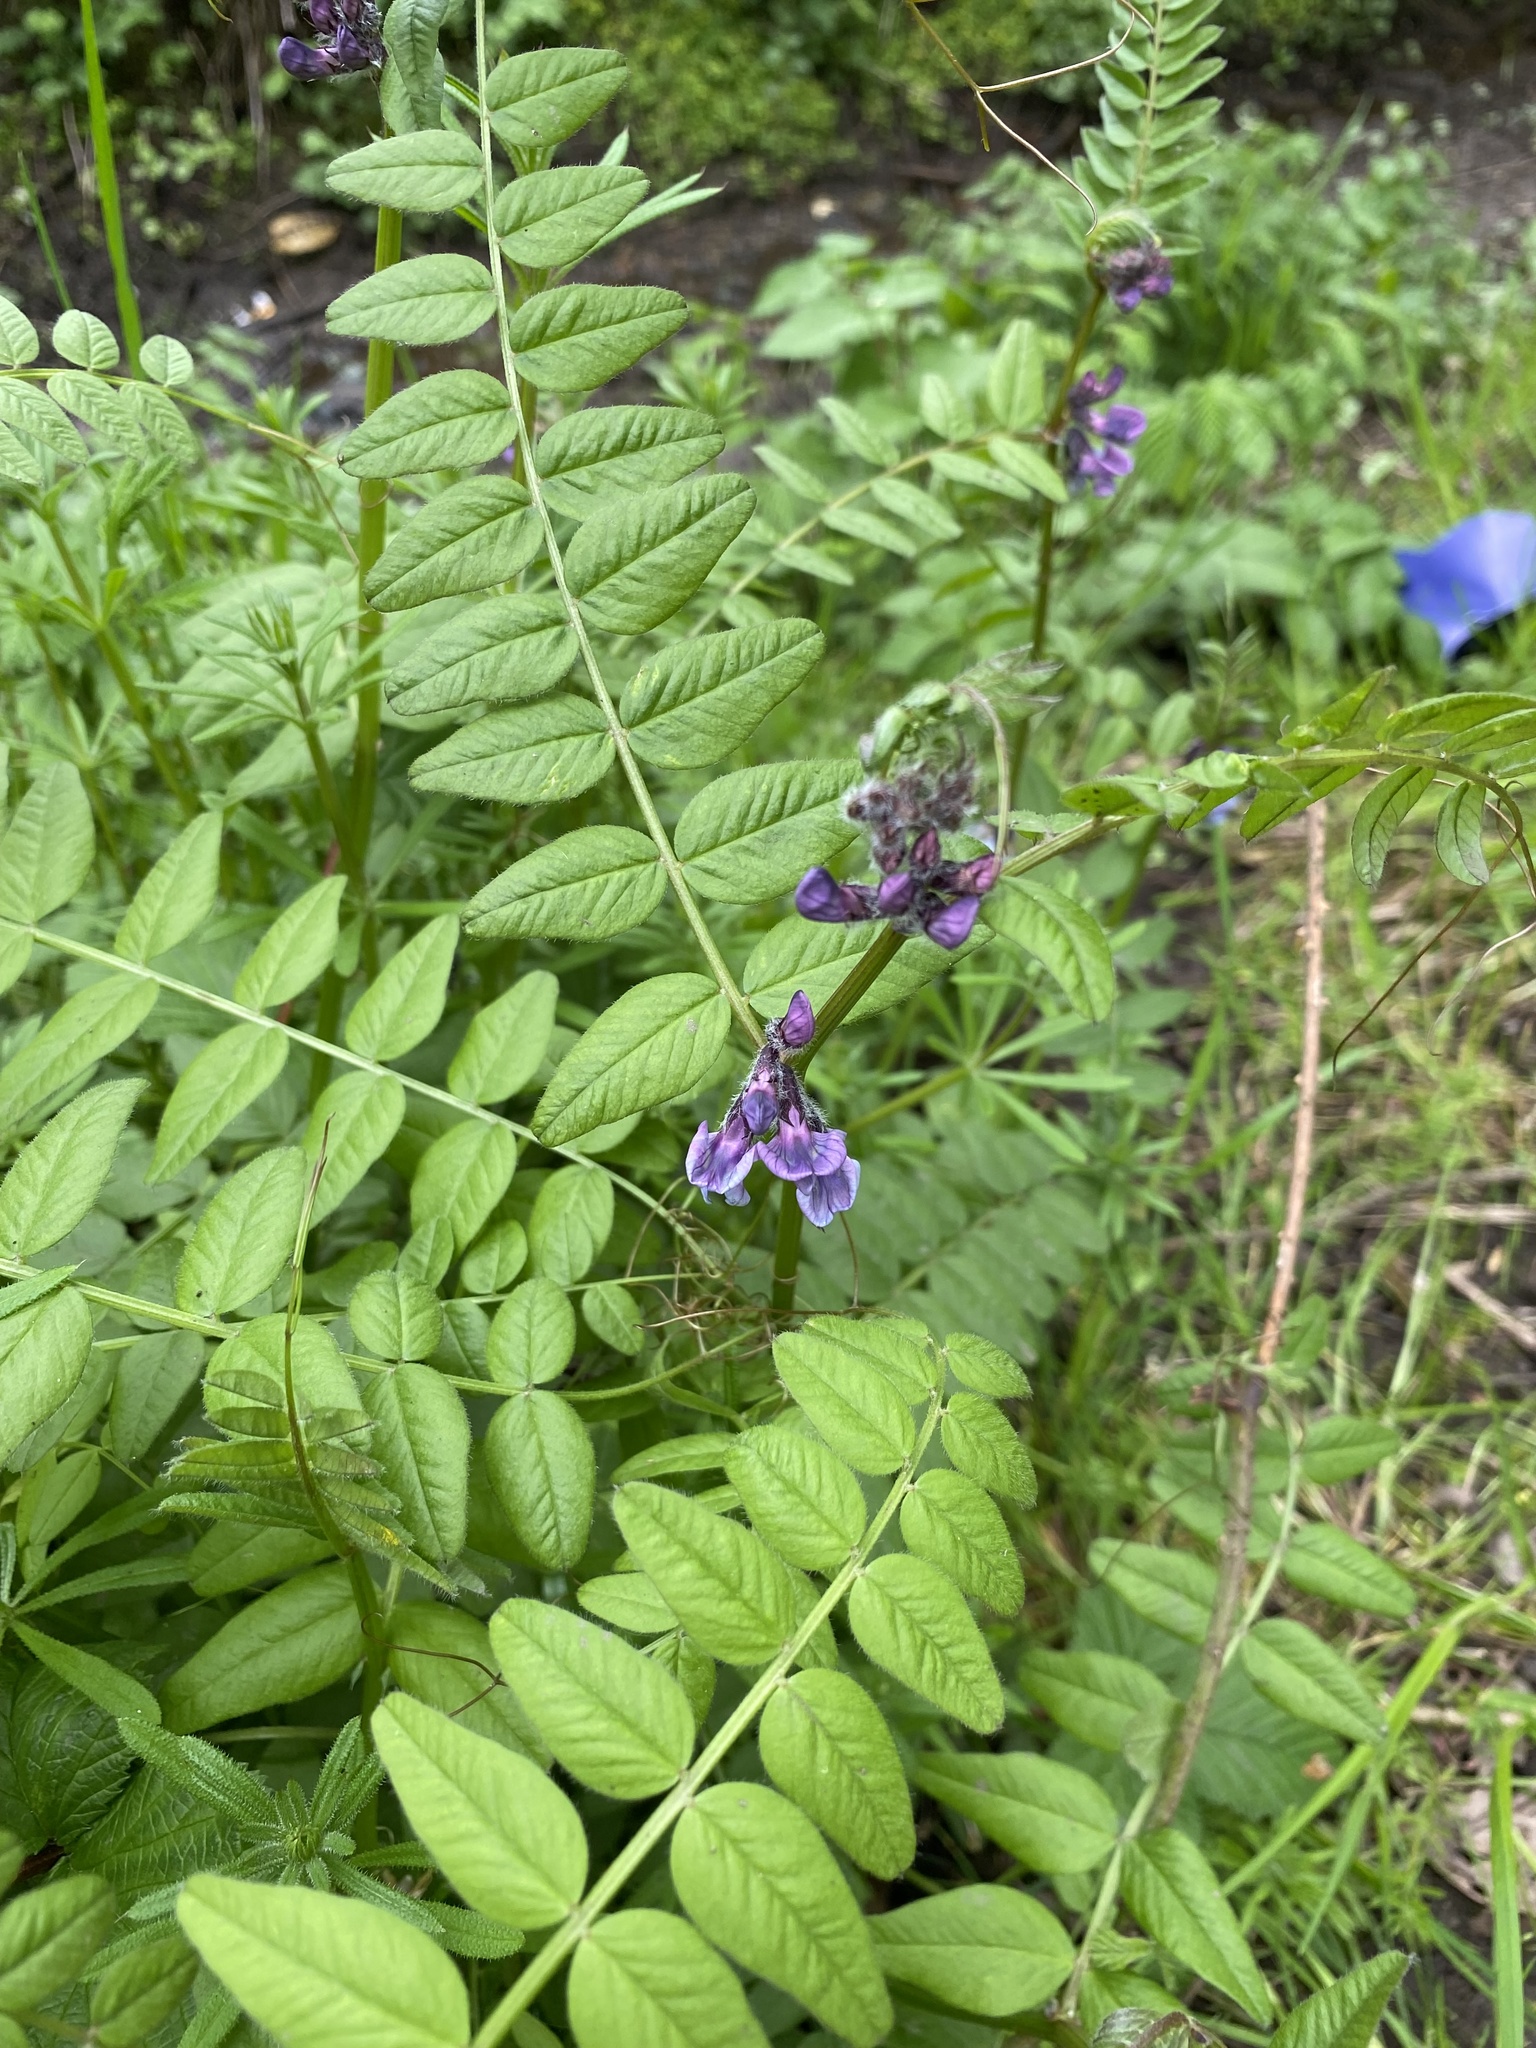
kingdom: Plantae
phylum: Tracheophyta
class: Magnoliopsida
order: Fabales
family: Fabaceae
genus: Vicia
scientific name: Vicia sepium
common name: Bush vetch
